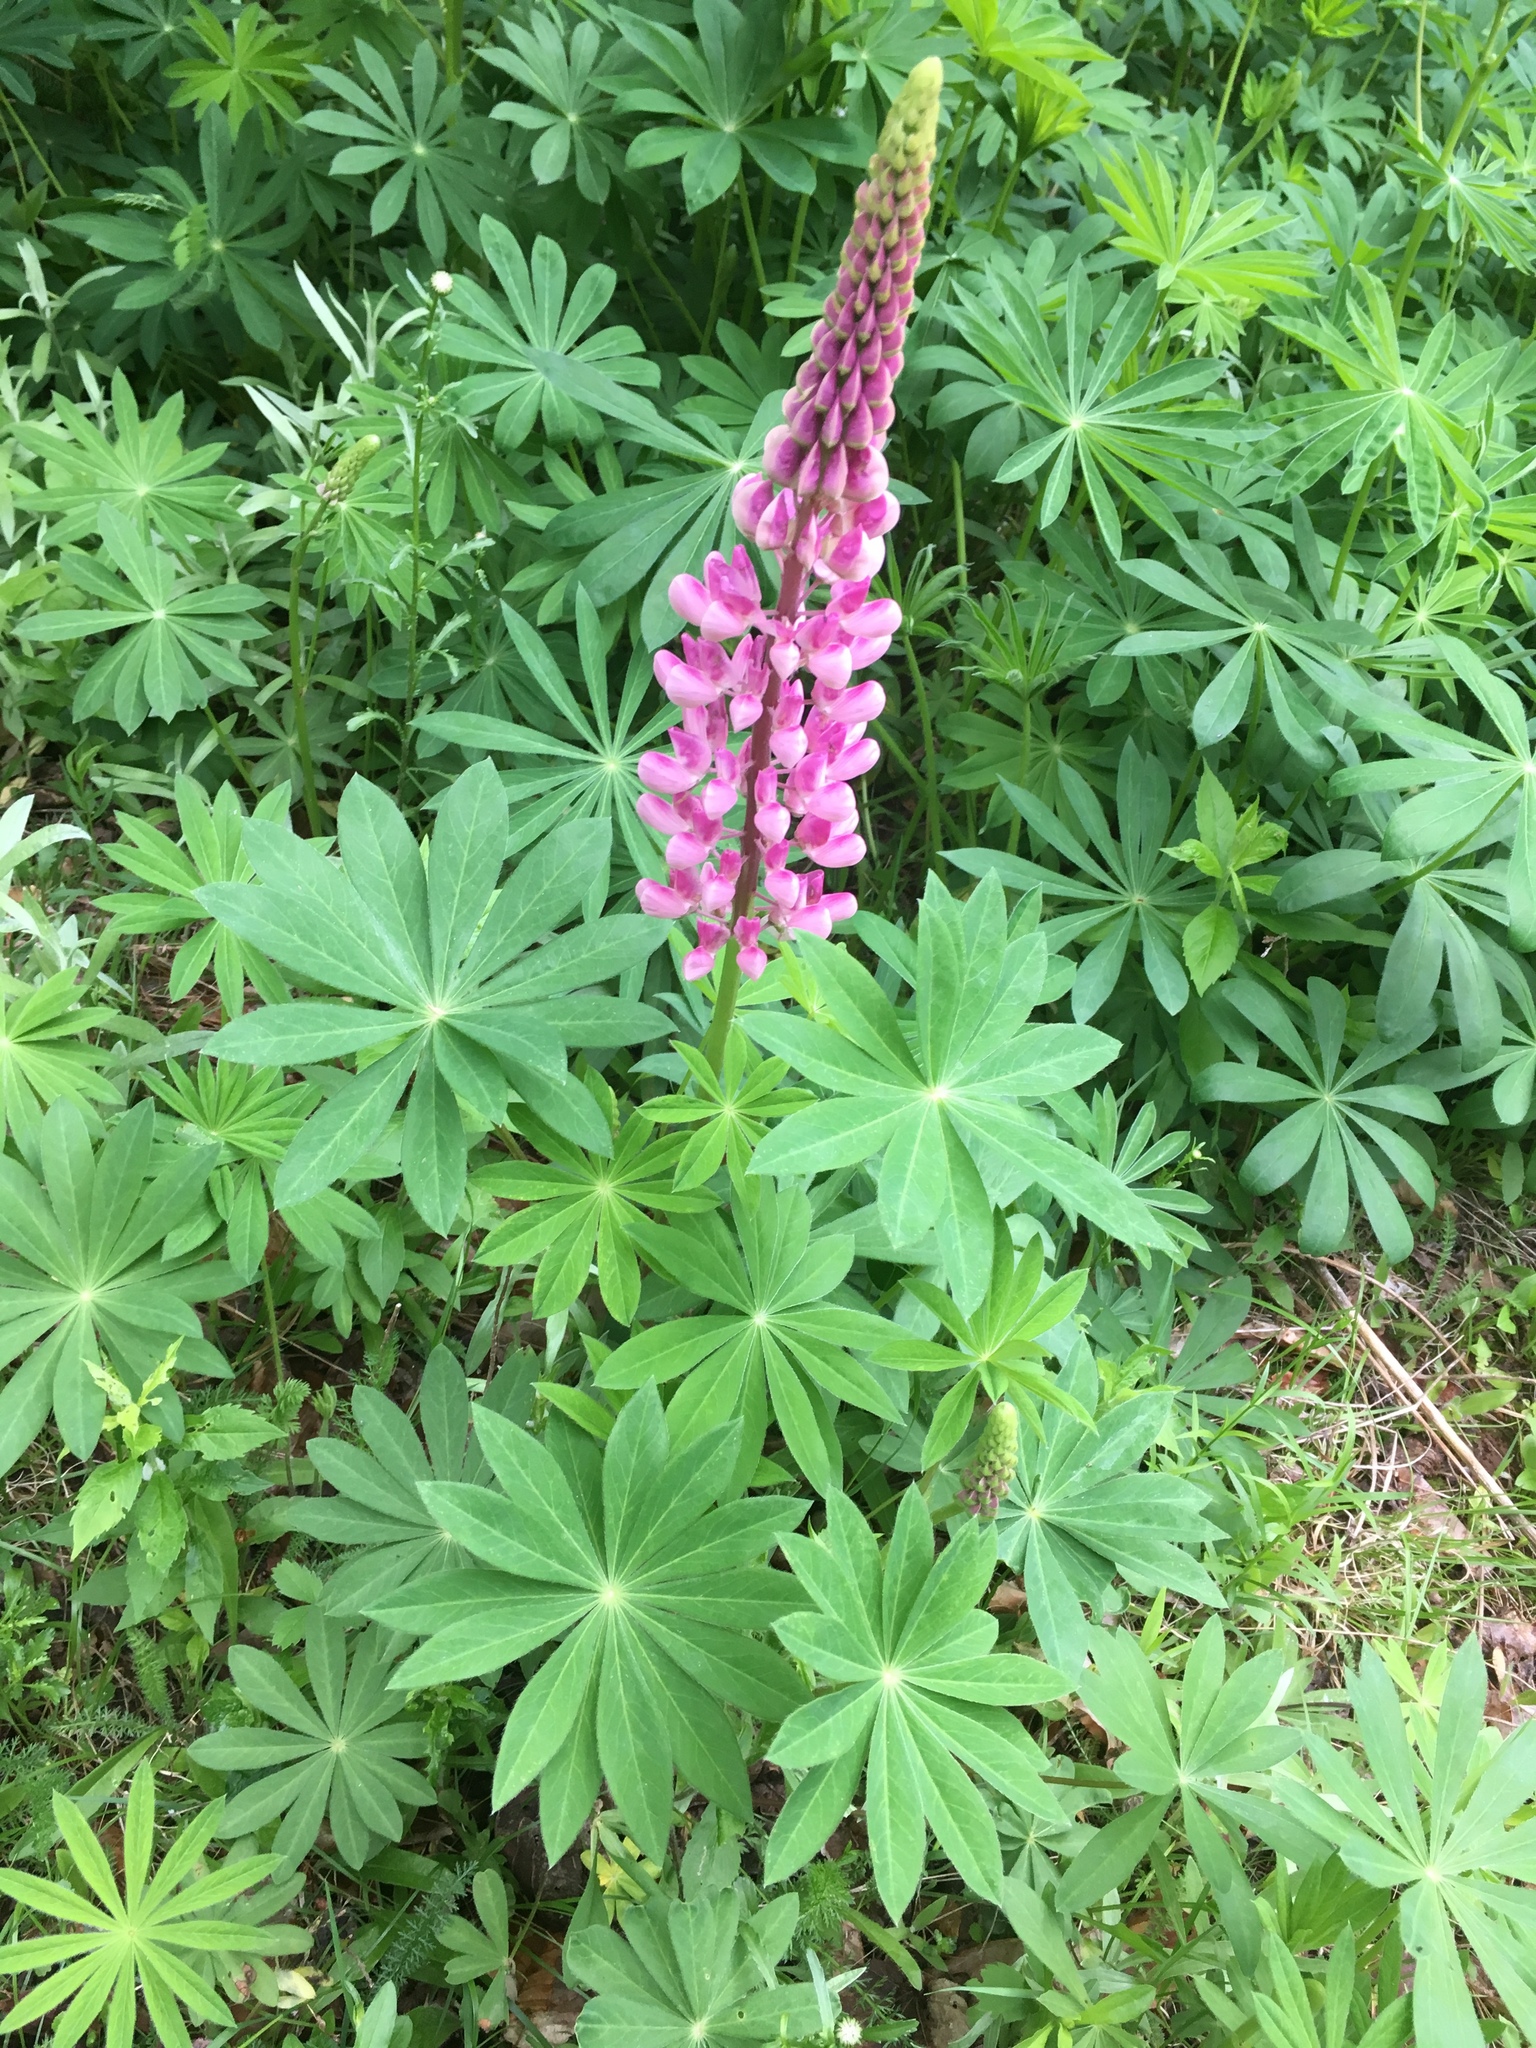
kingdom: Plantae
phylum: Tracheophyta
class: Magnoliopsida
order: Fabales
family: Fabaceae
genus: Lupinus
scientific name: Lupinus polyphyllus
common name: Garden lupin
